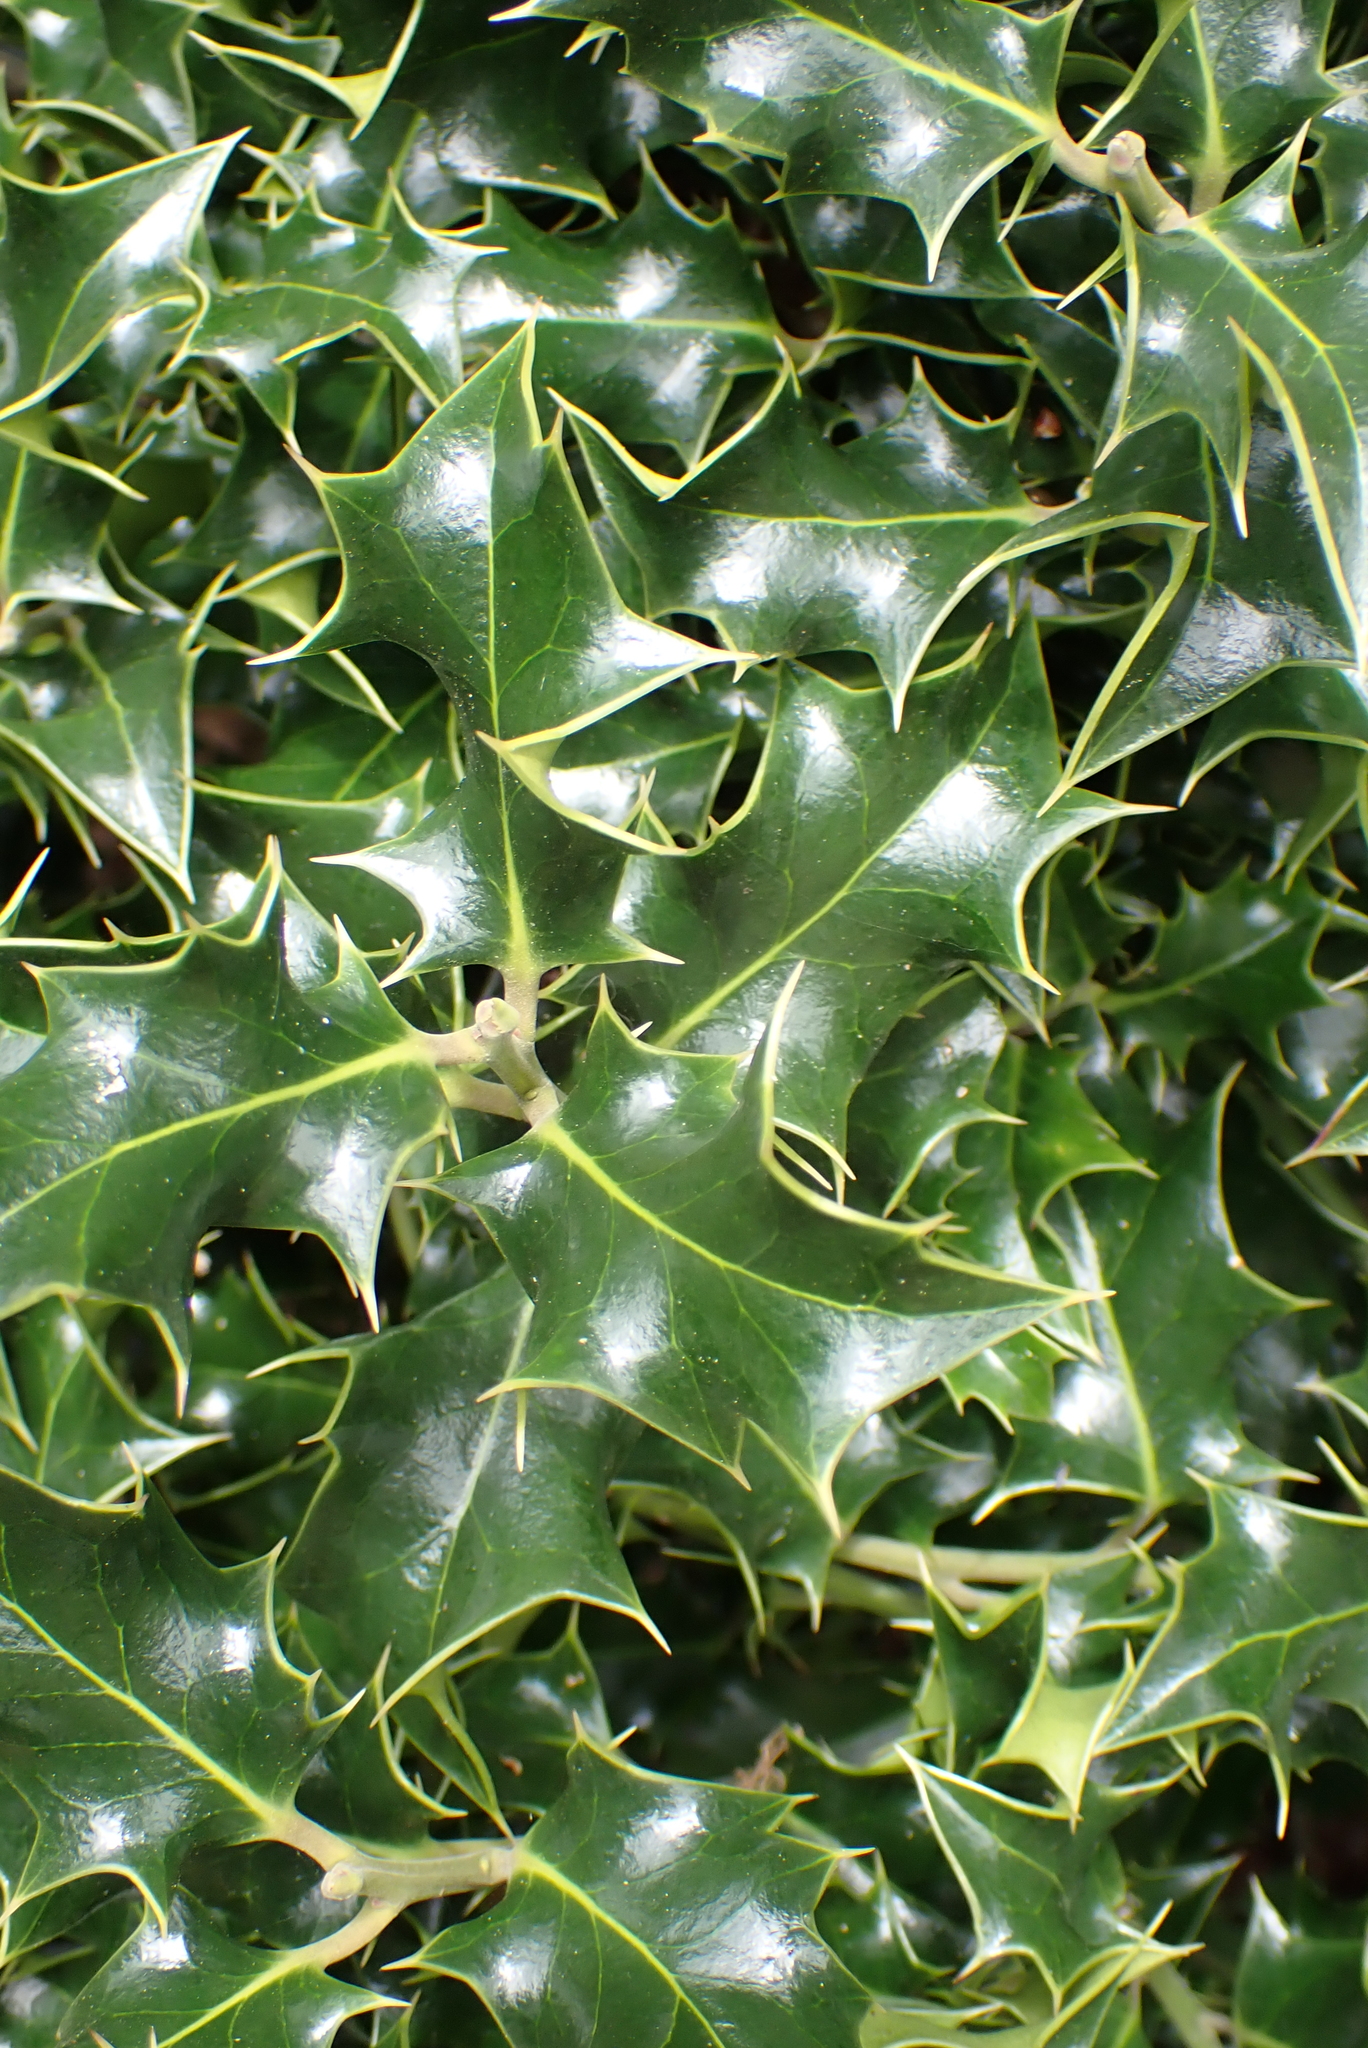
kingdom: Plantae
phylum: Tracheophyta
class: Magnoliopsida
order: Aquifoliales
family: Aquifoliaceae
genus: Ilex
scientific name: Ilex aquifolium
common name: English holly
